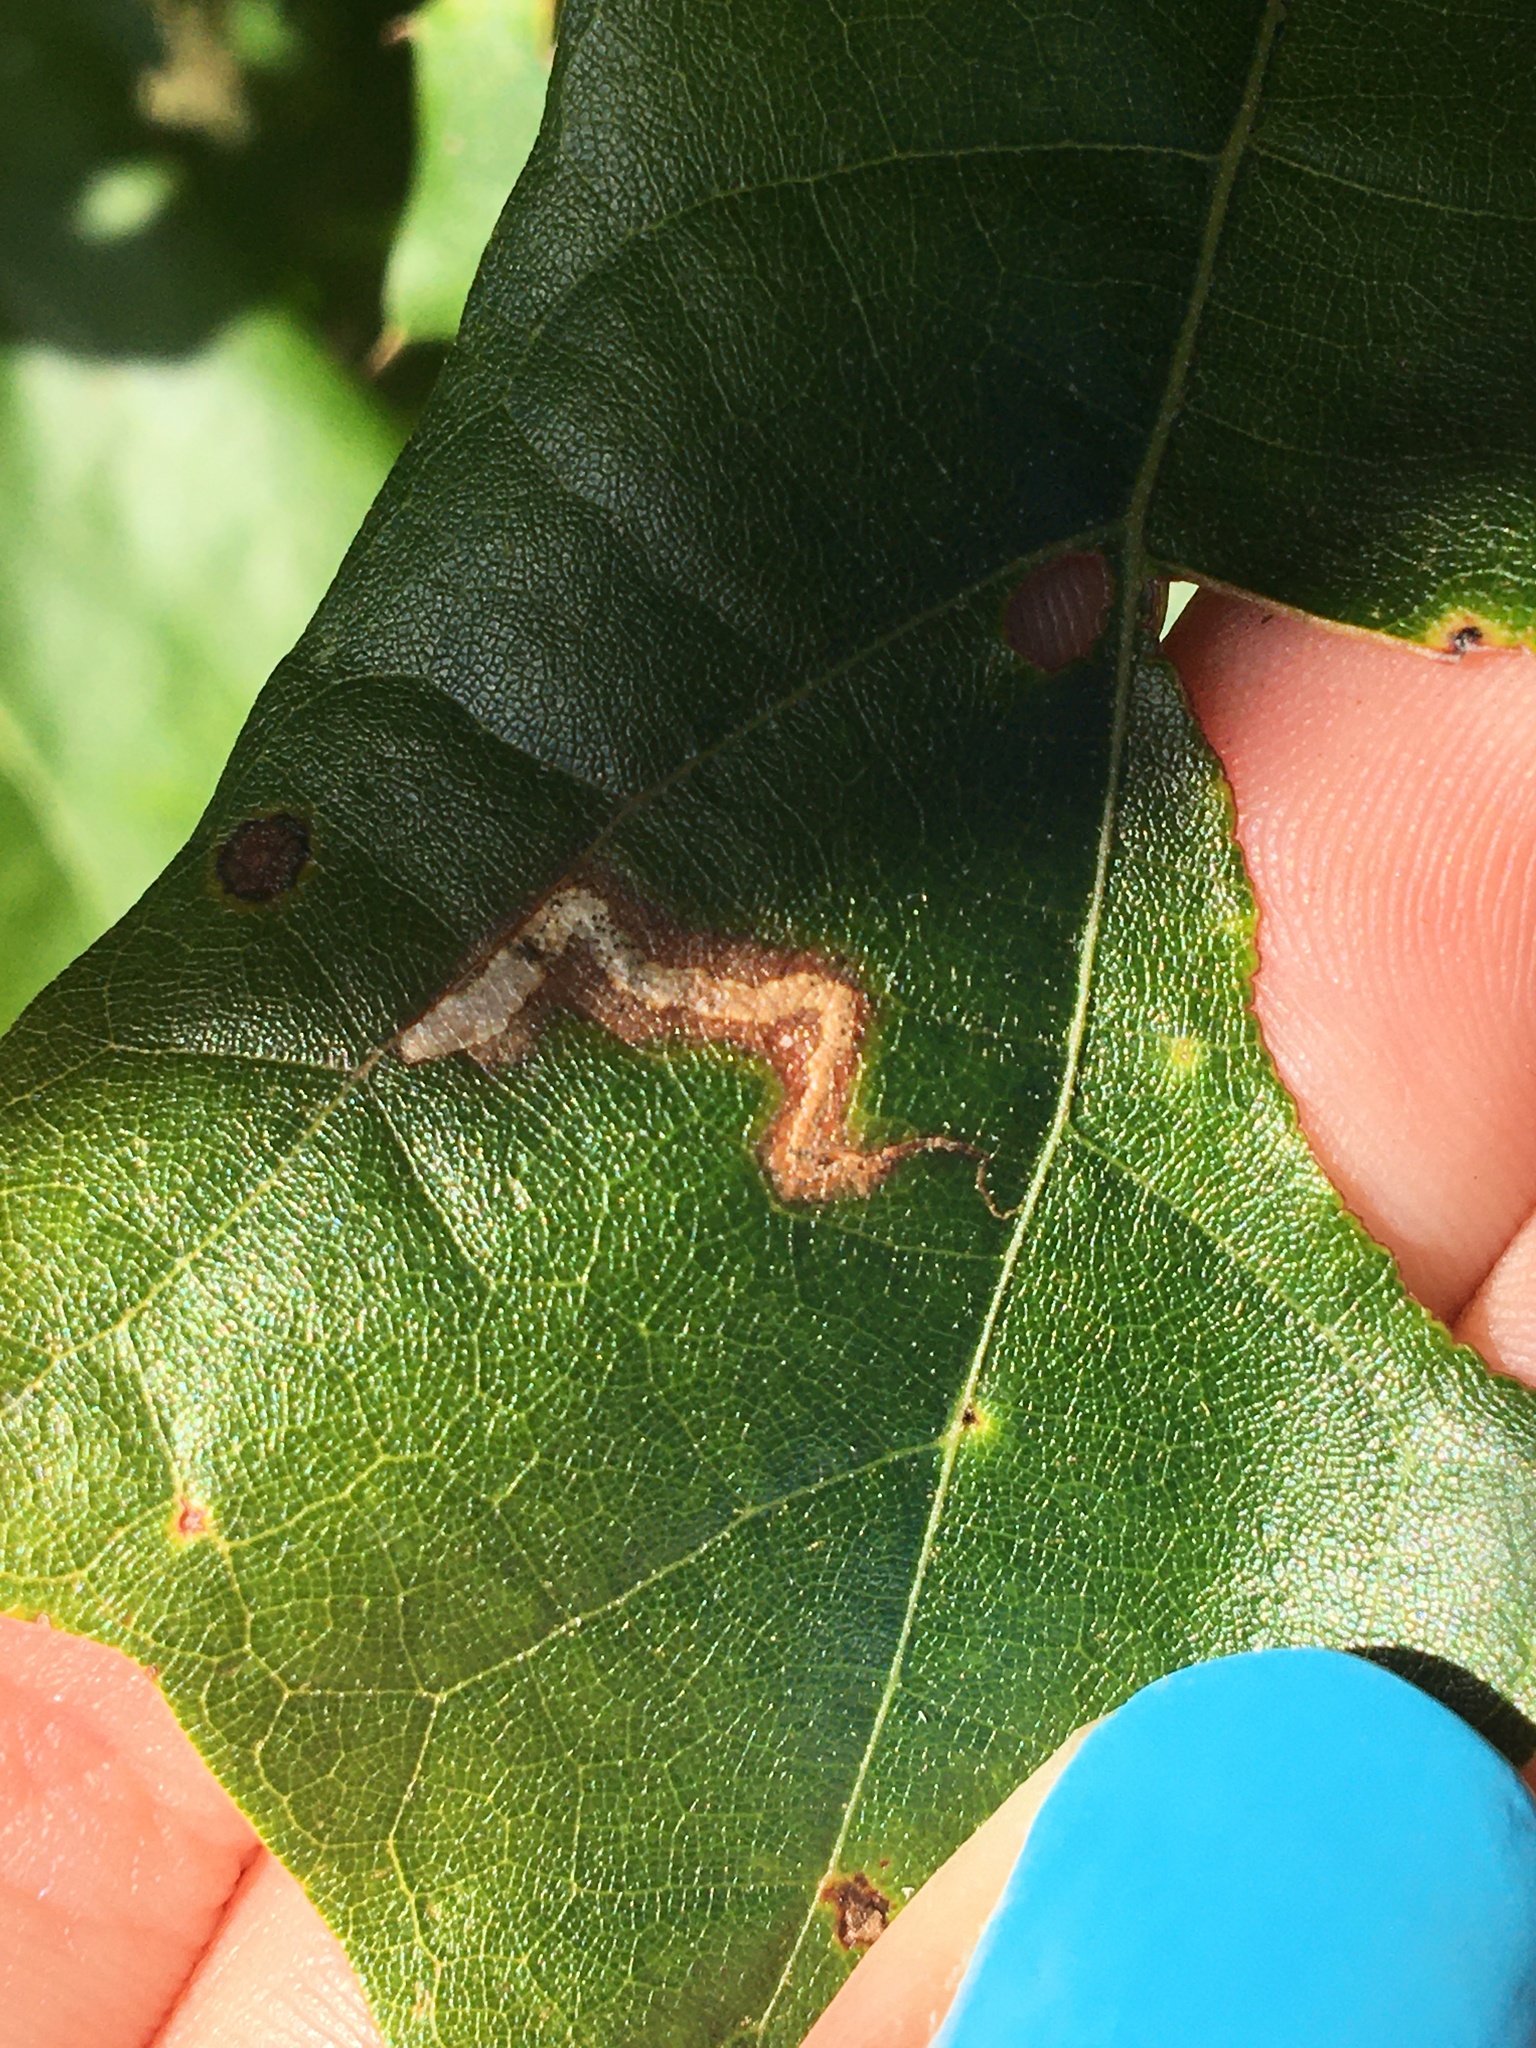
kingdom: Animalia
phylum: Arthropoda
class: Insecta
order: Lepidoptera
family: Nepticulidae
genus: Stigmella
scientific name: Stigmella
